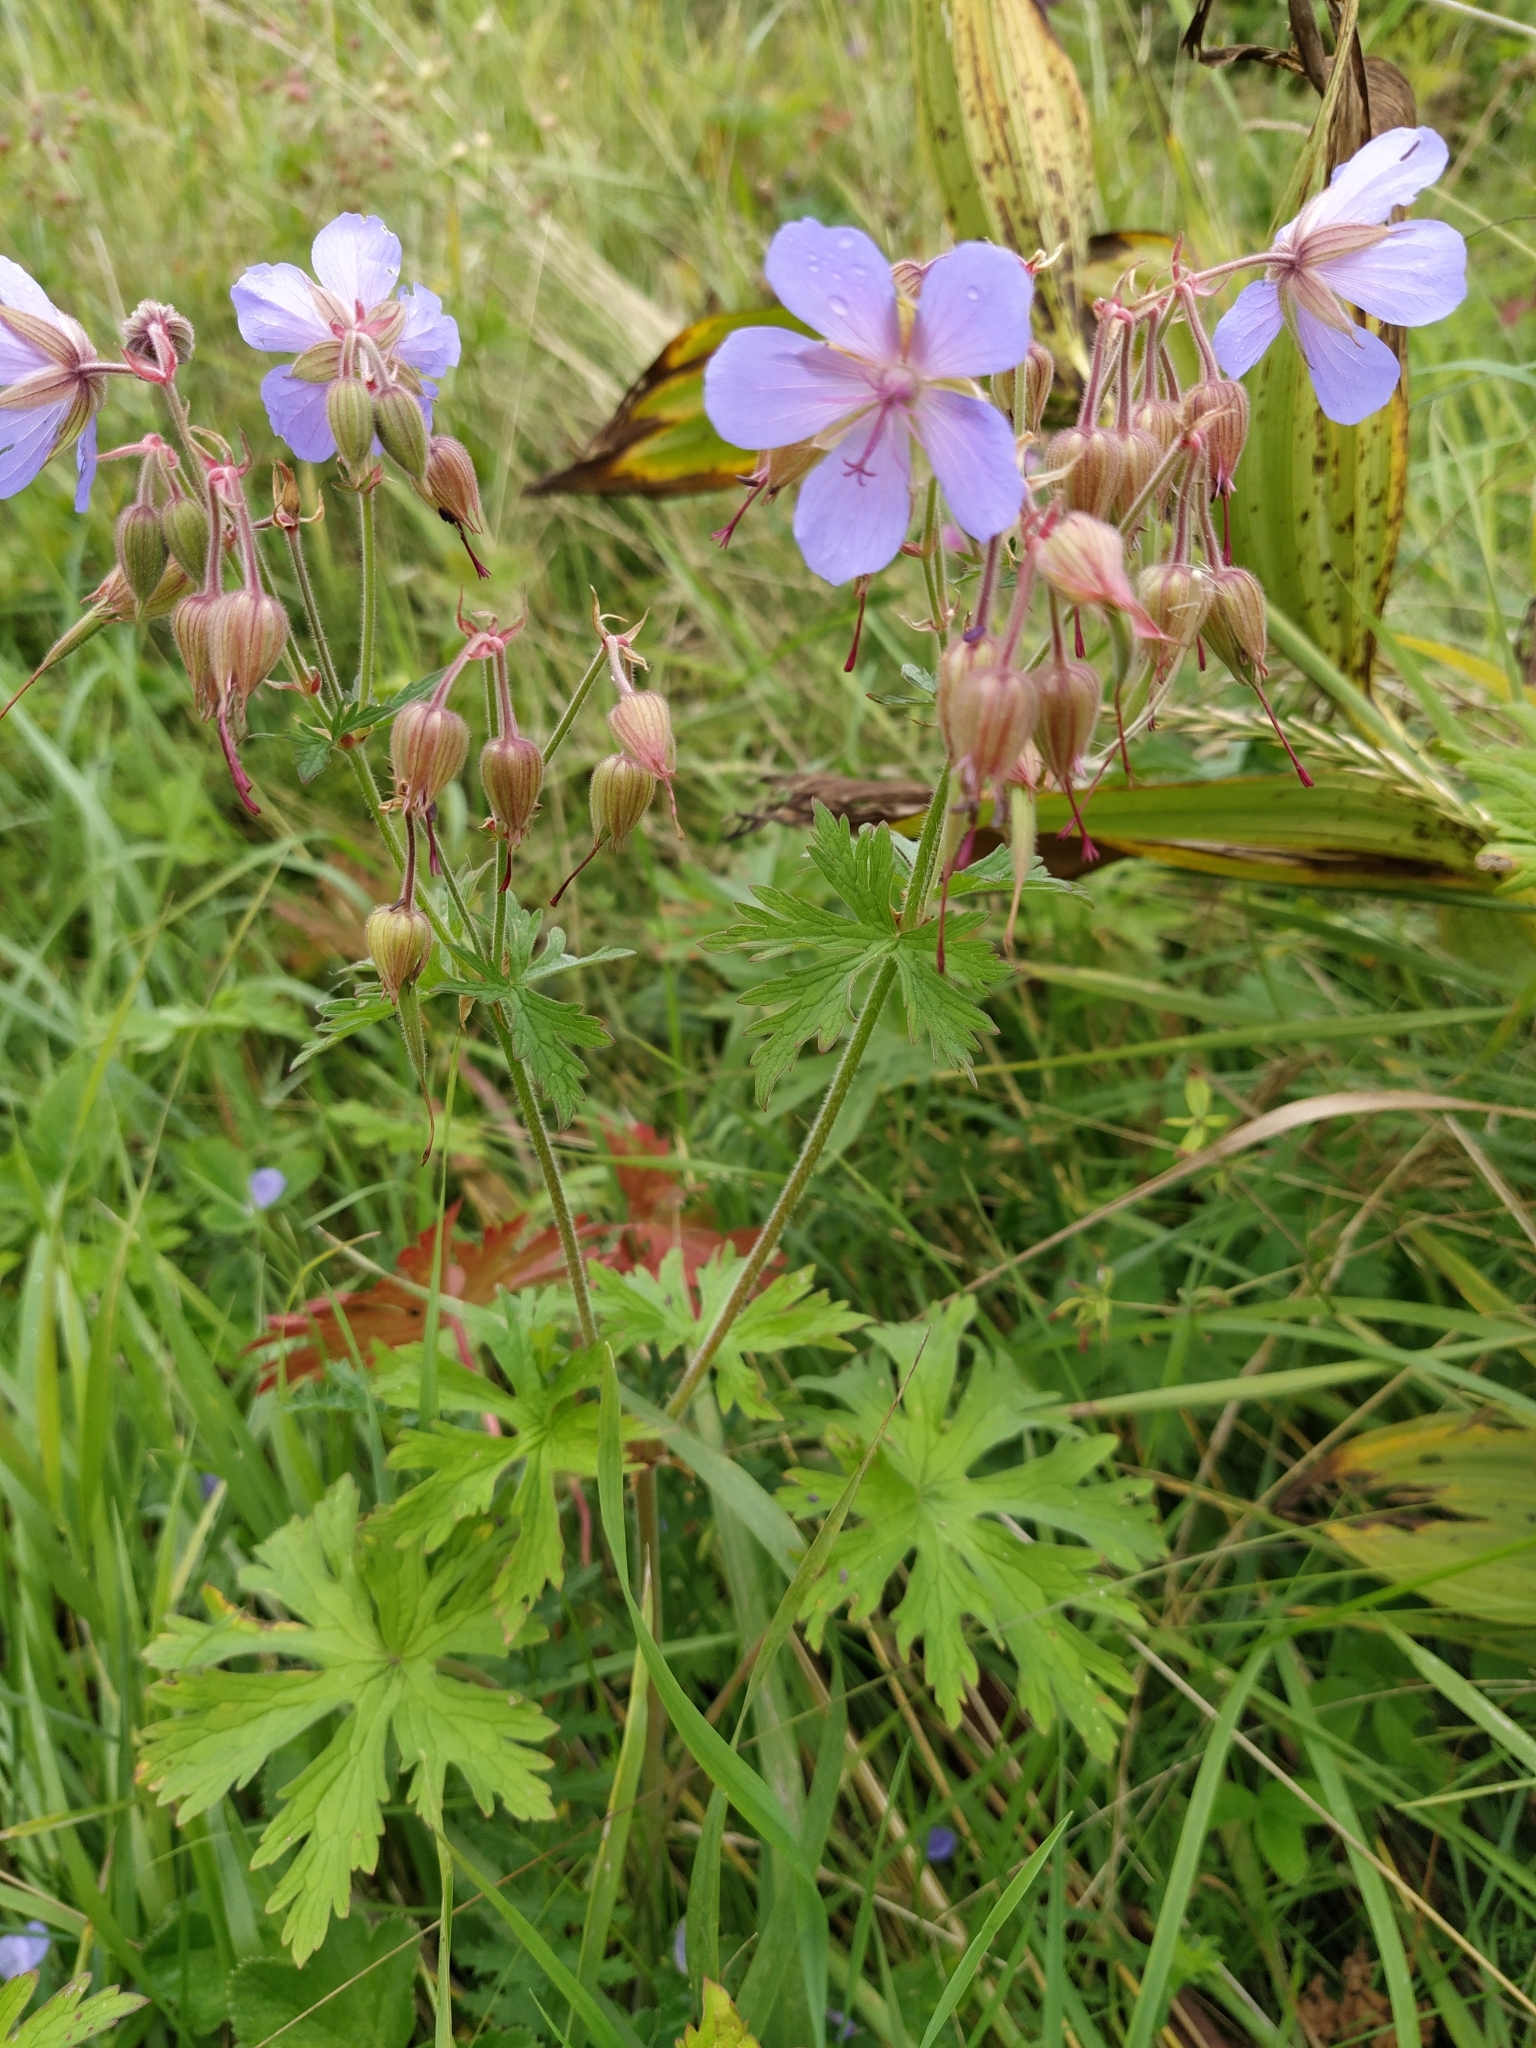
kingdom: Plantae
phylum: Tracheophyta
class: Magnoliopsida
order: Geraniales
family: Geraniaceae
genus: Geranium
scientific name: Geranium pratense
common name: Meadow crane's-bill
